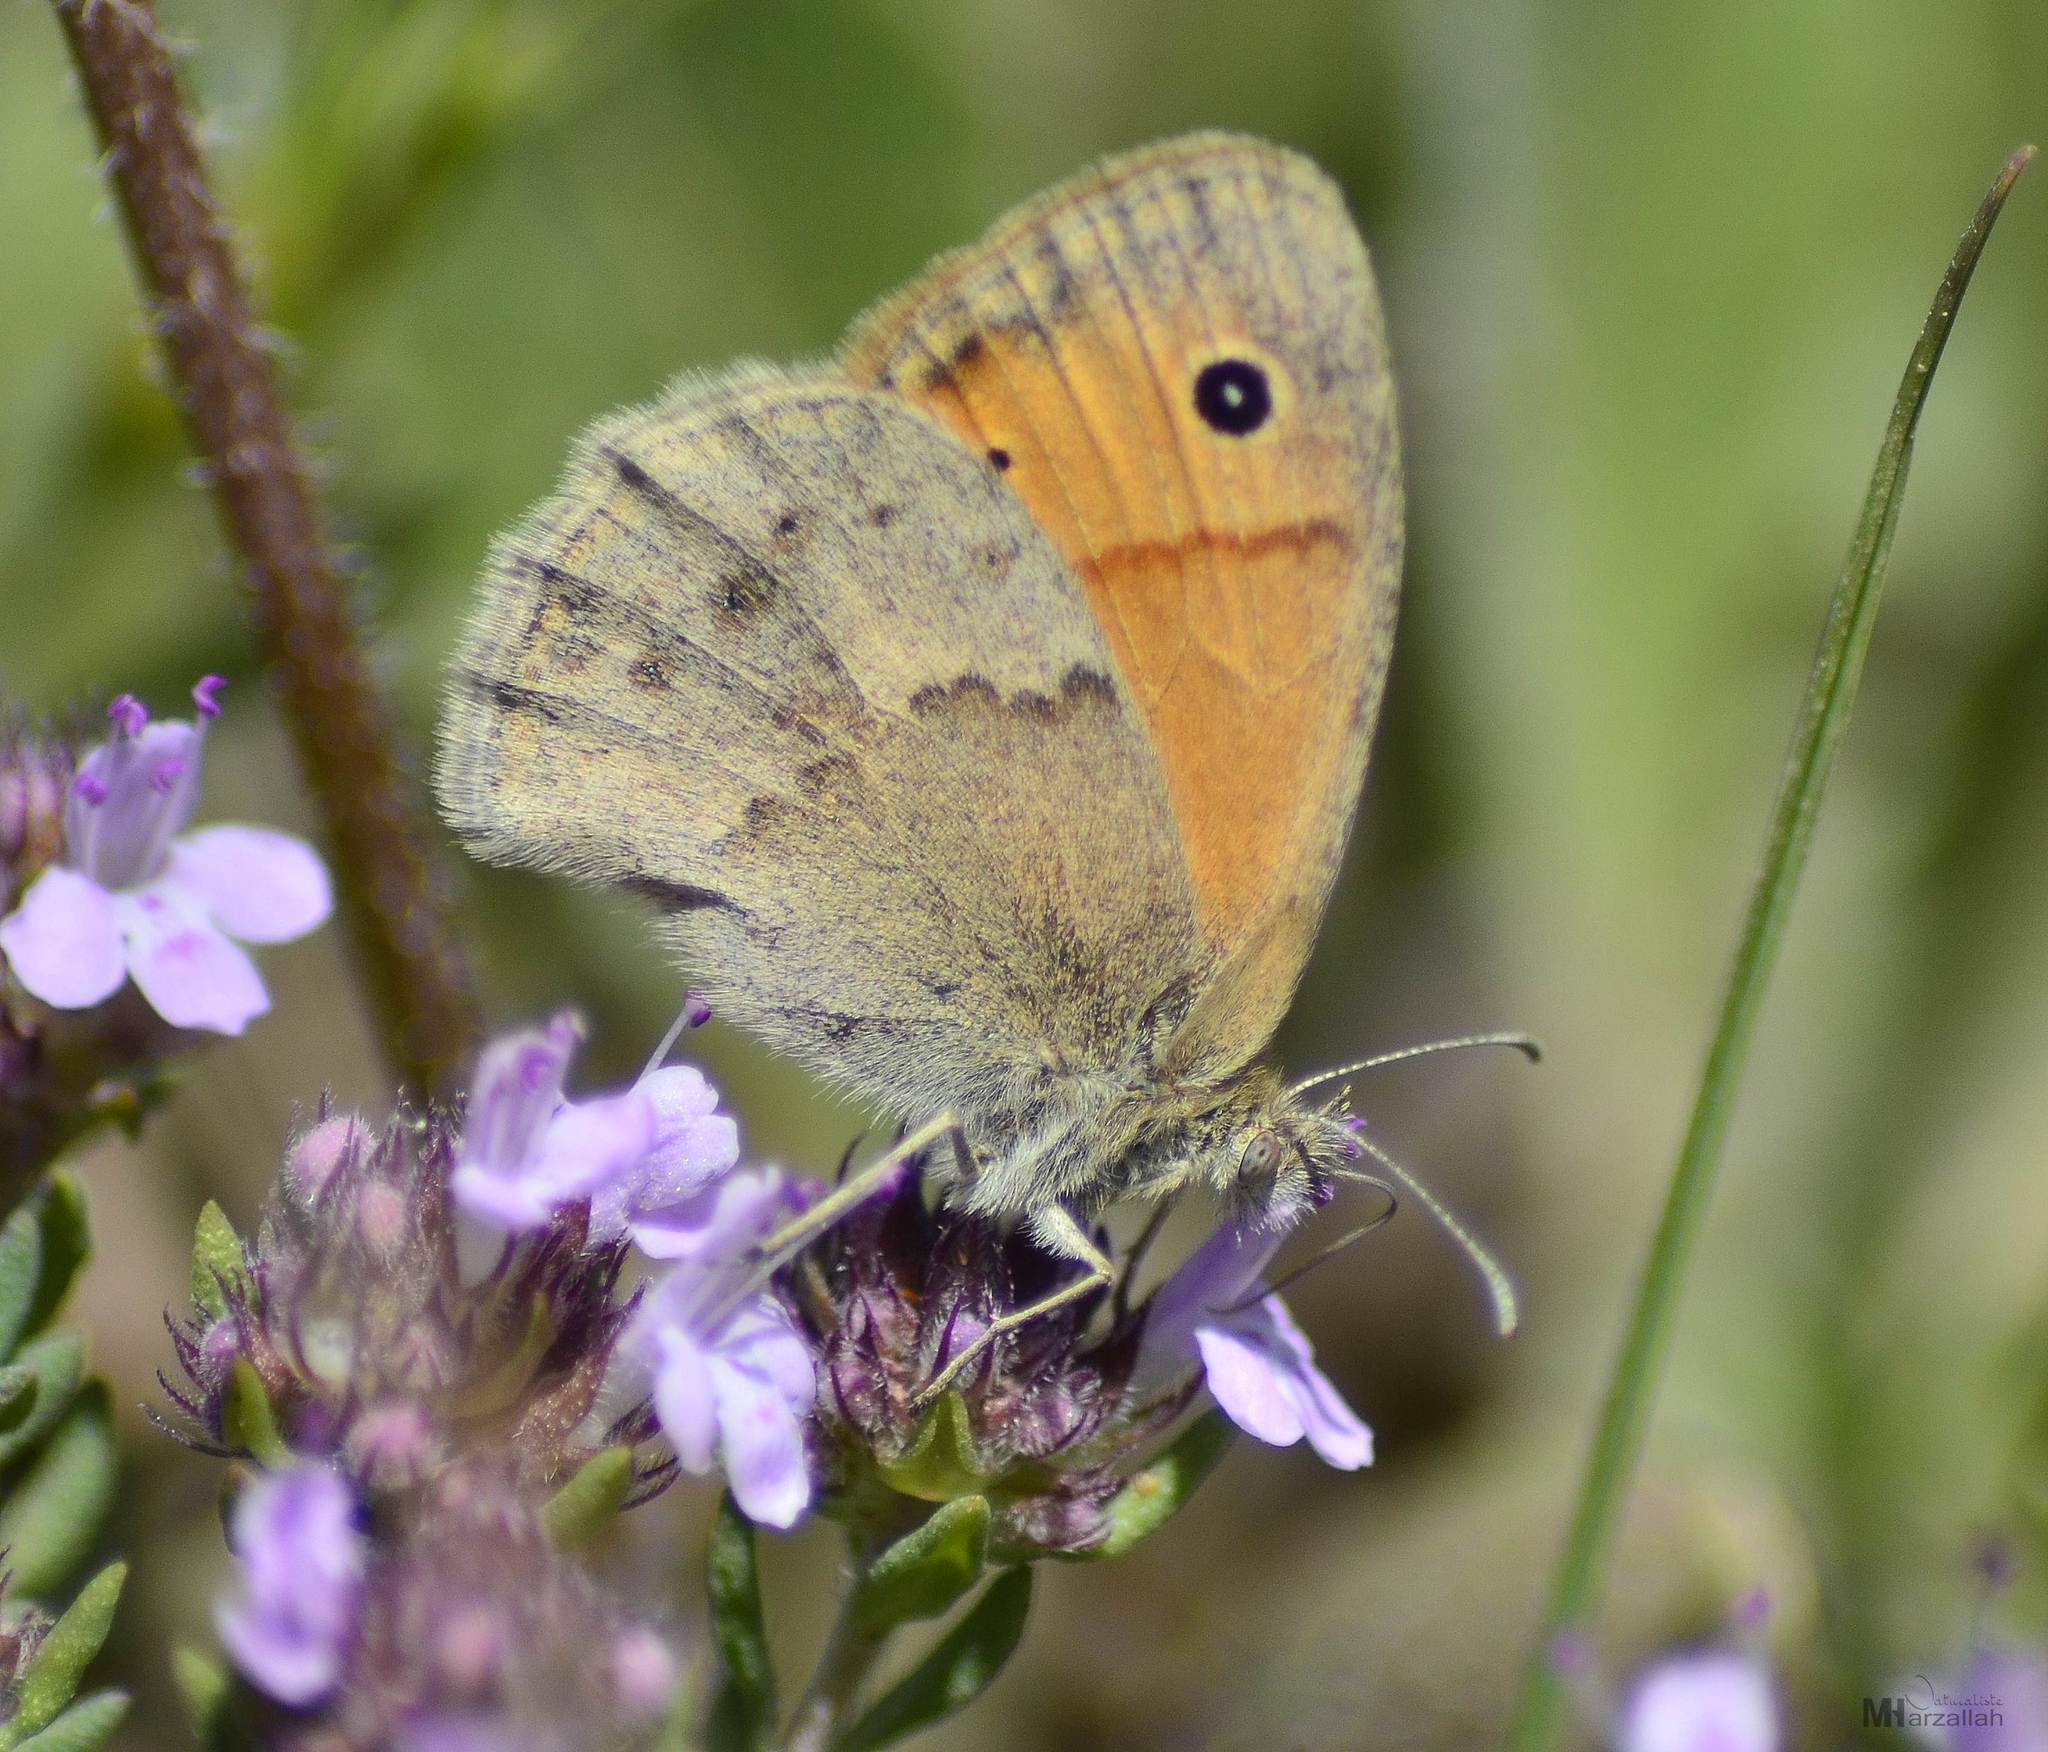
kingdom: Animalia
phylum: Arthropoda
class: Insecta
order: Lepidoptera
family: Nymphalidae
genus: Coenonympha
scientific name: Coenonympha pamphilus
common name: Small heath
